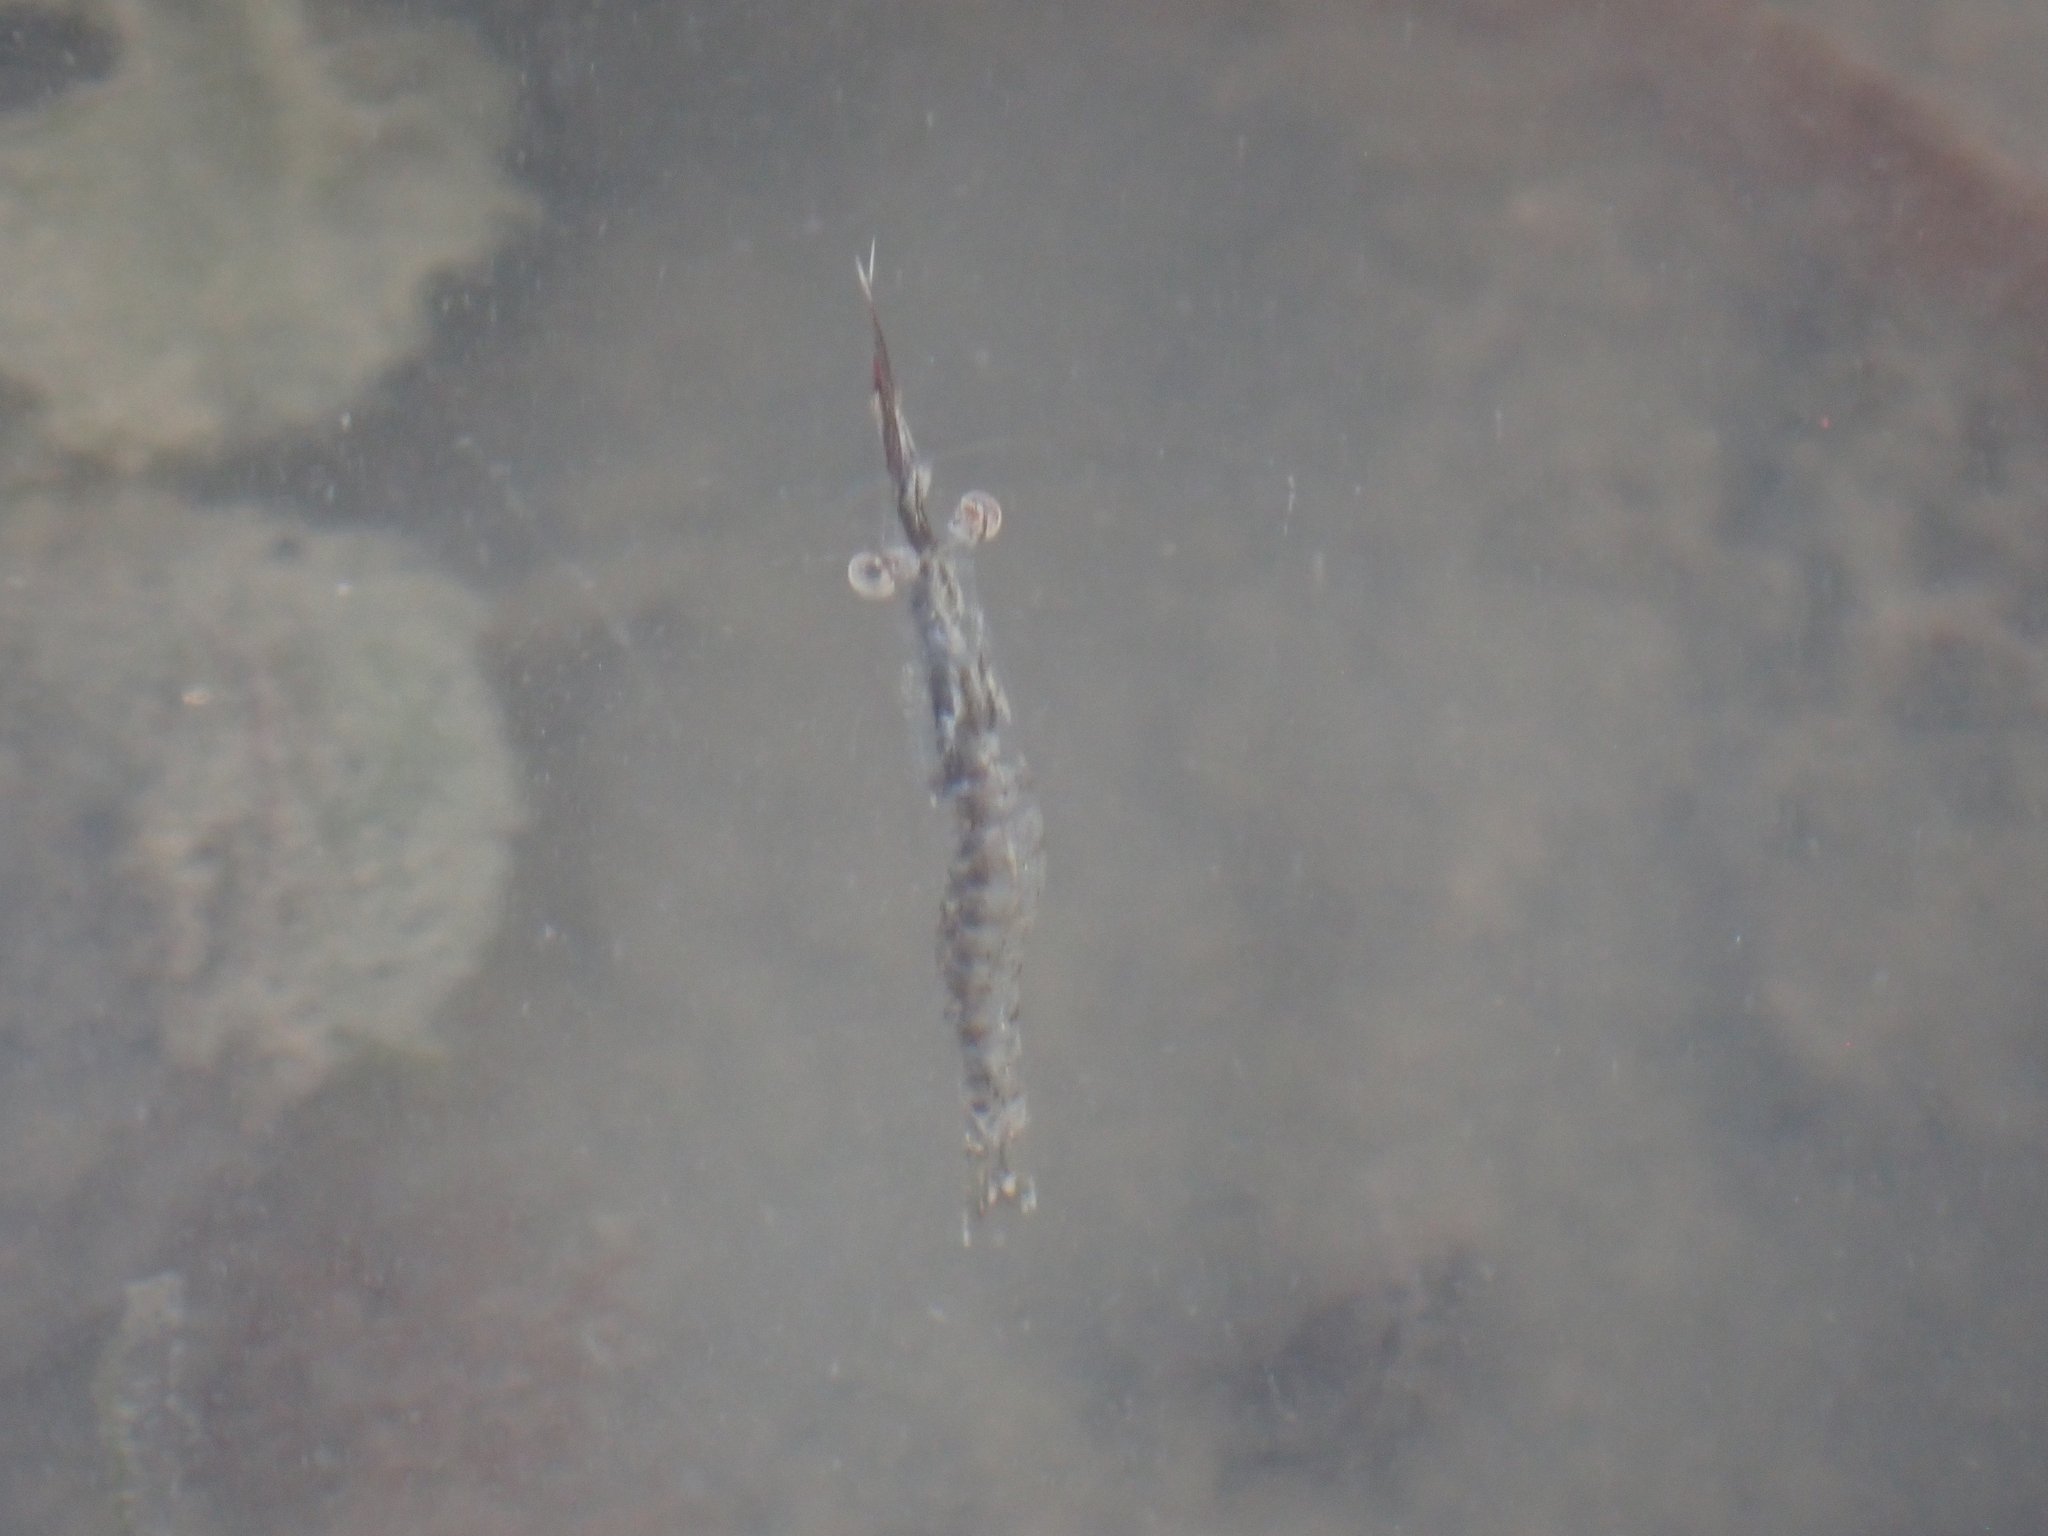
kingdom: Animalia
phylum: Arthropoda
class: Malacostraca
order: Mysida
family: Mysidae
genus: Praunus
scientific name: Praunus flexuosus
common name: Chameleon shrimp
